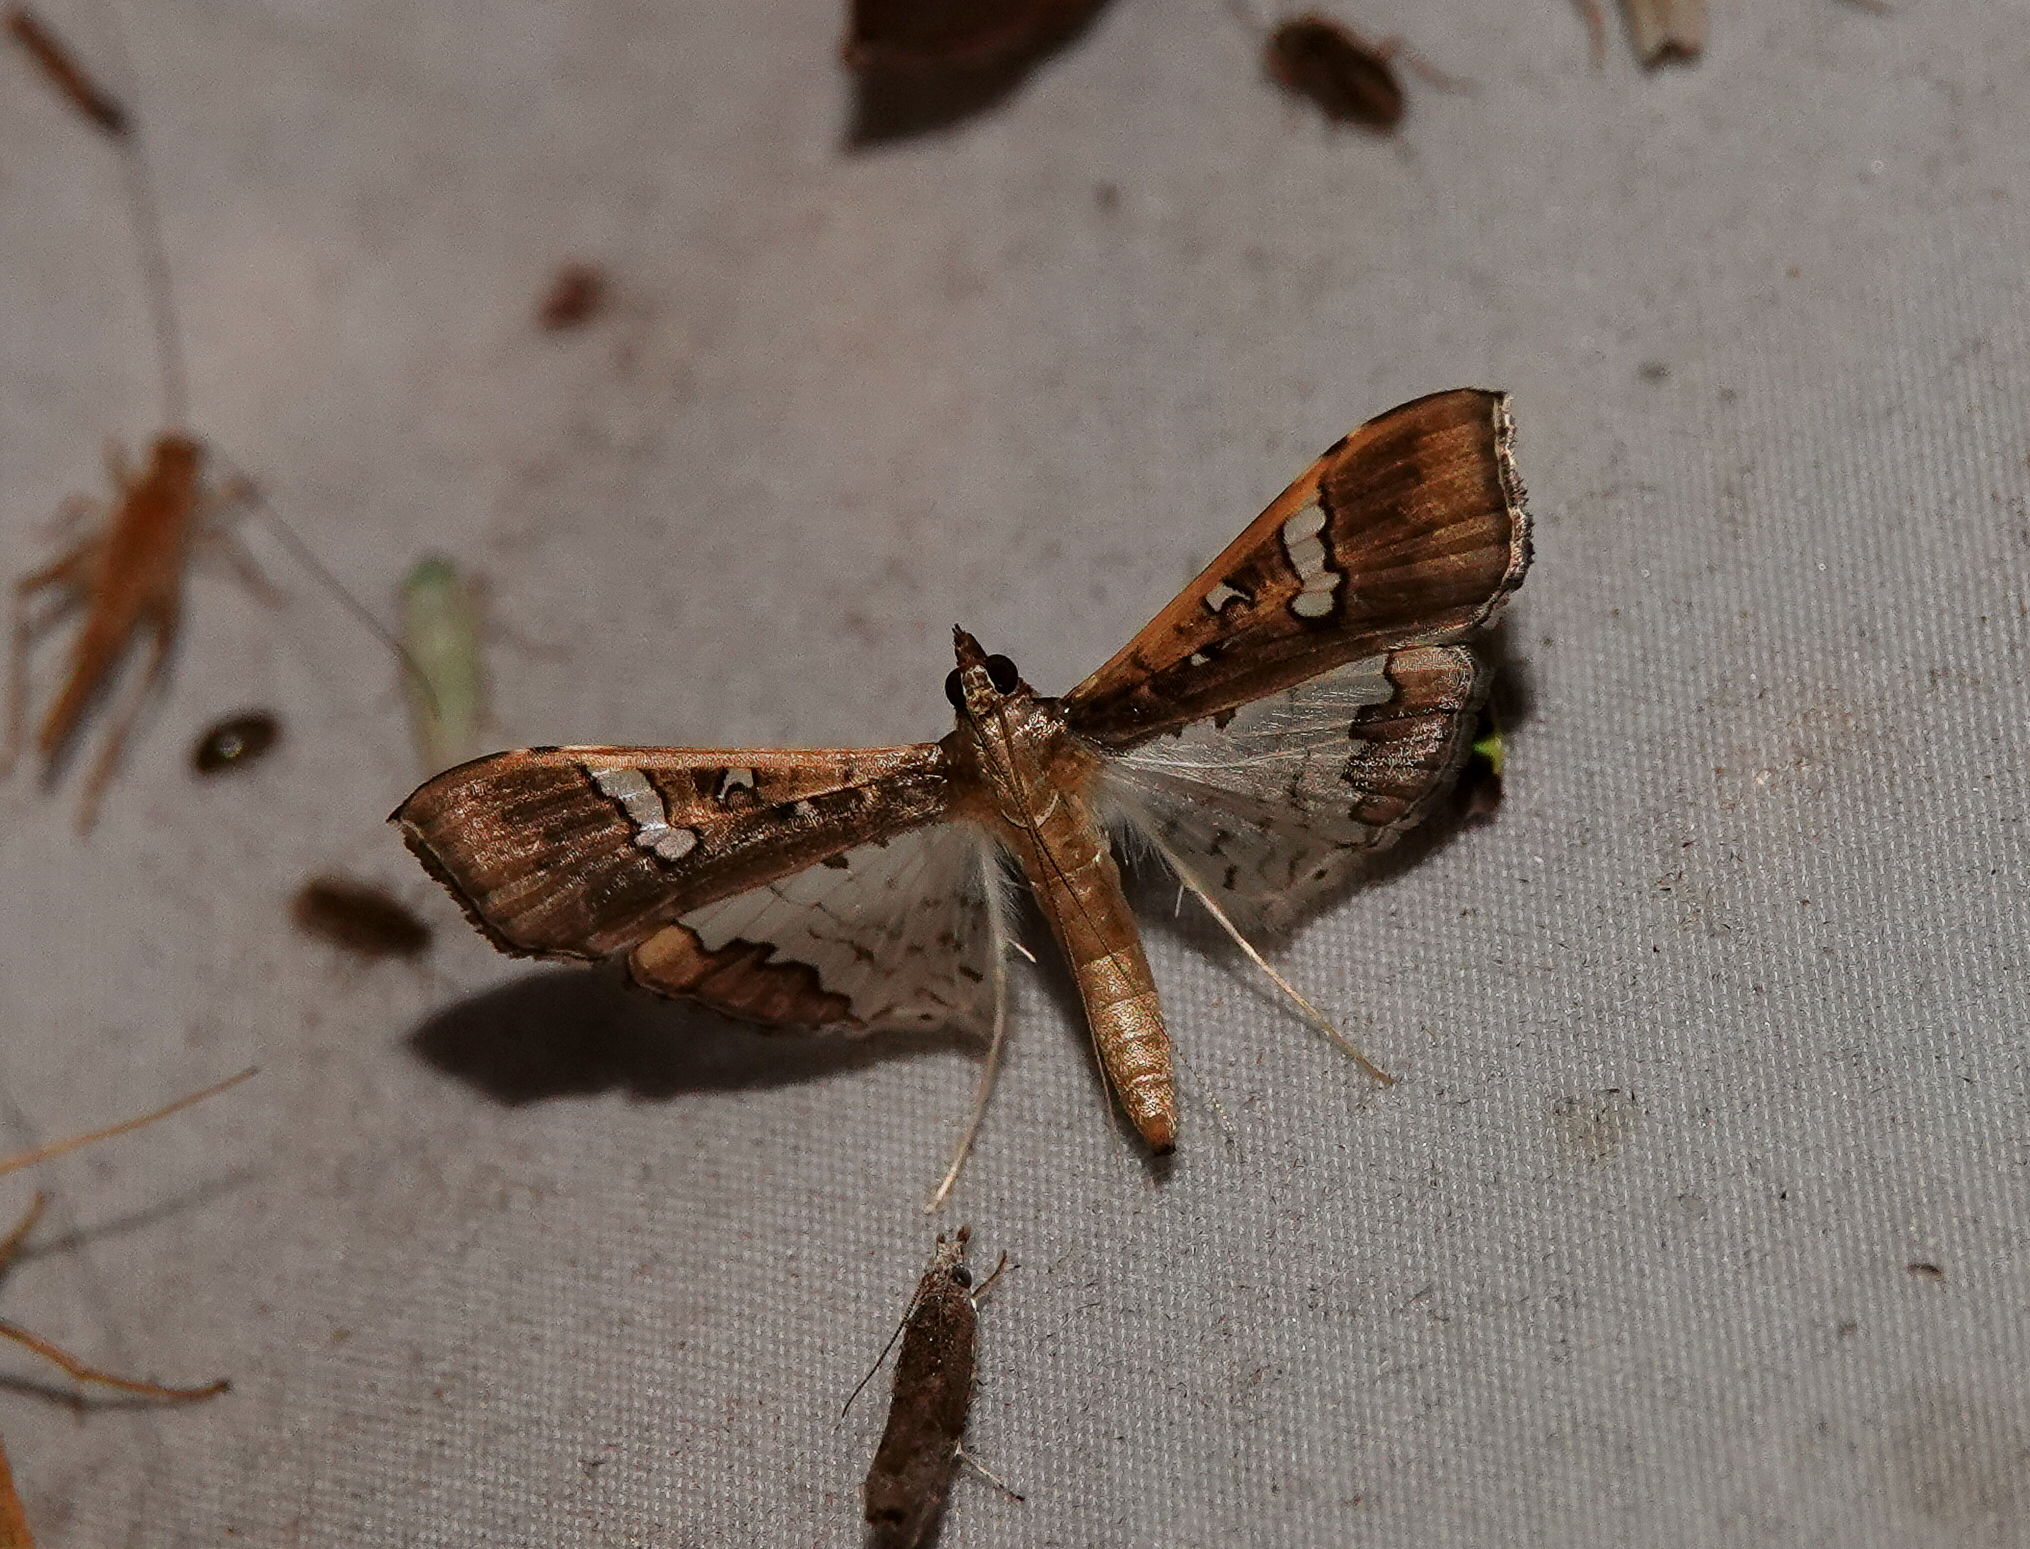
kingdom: Animalia
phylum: Arthropoda
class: Insecta
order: Lepidoptera
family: Crambidae
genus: Maruca
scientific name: Maruca vitrata
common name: Maruca pod borer
